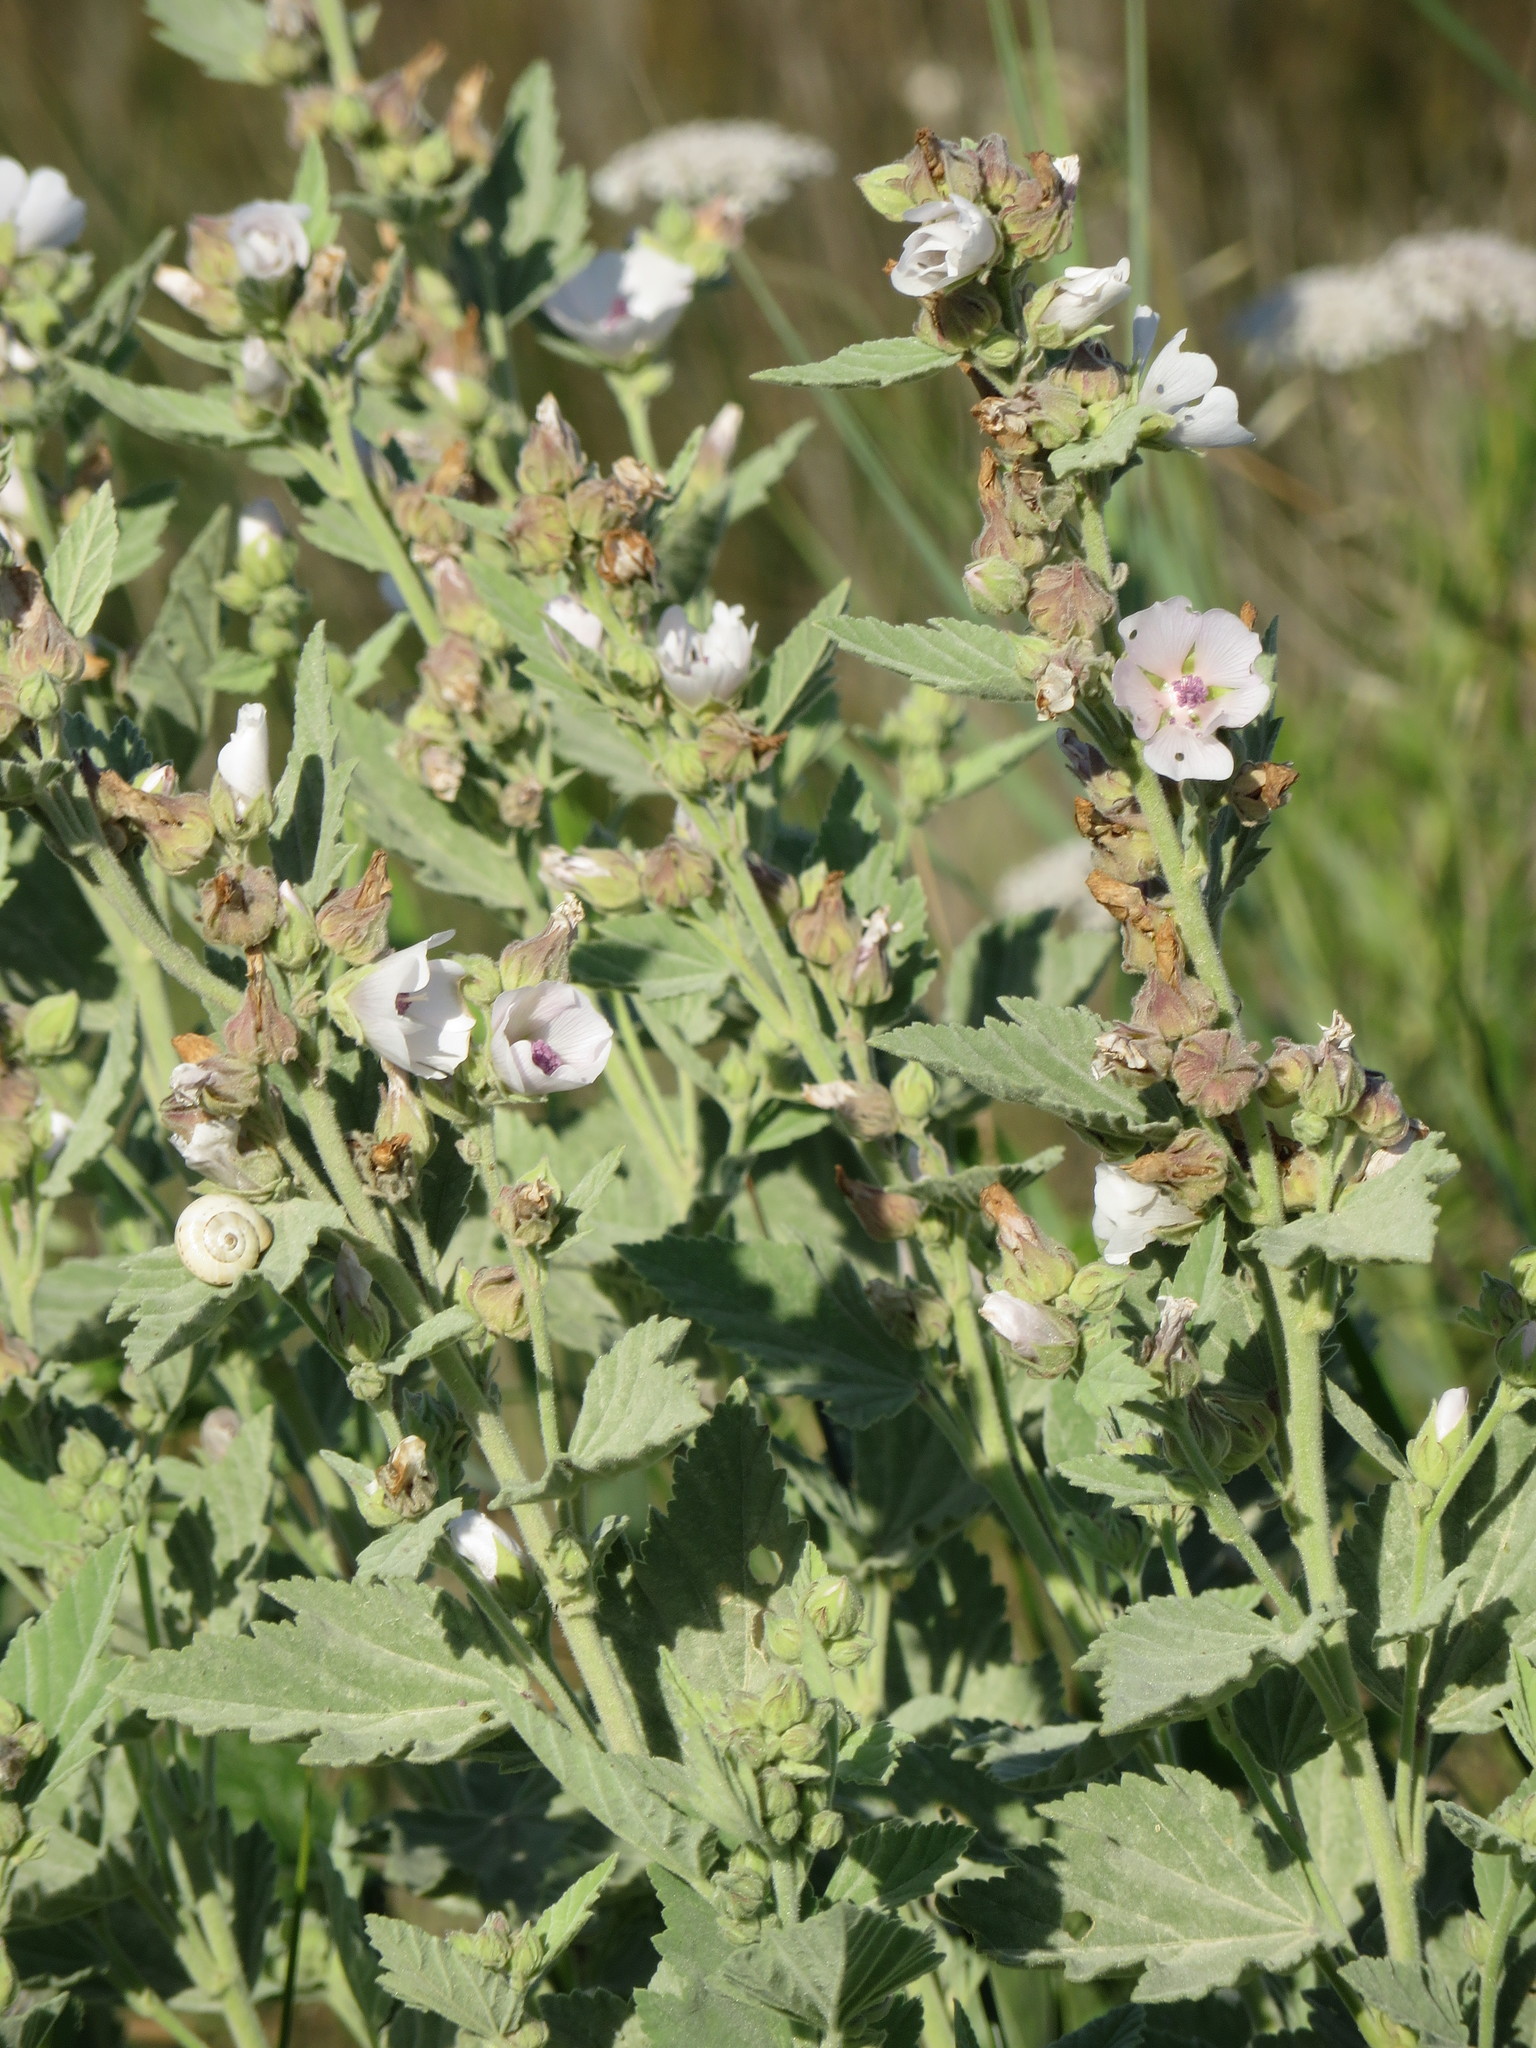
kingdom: Plantae
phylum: Tracheophyta
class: Magnoliopsida
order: Malvales
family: Malvaceae
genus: Althaea
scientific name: Althaea officinalis
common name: Marsh-mallow
